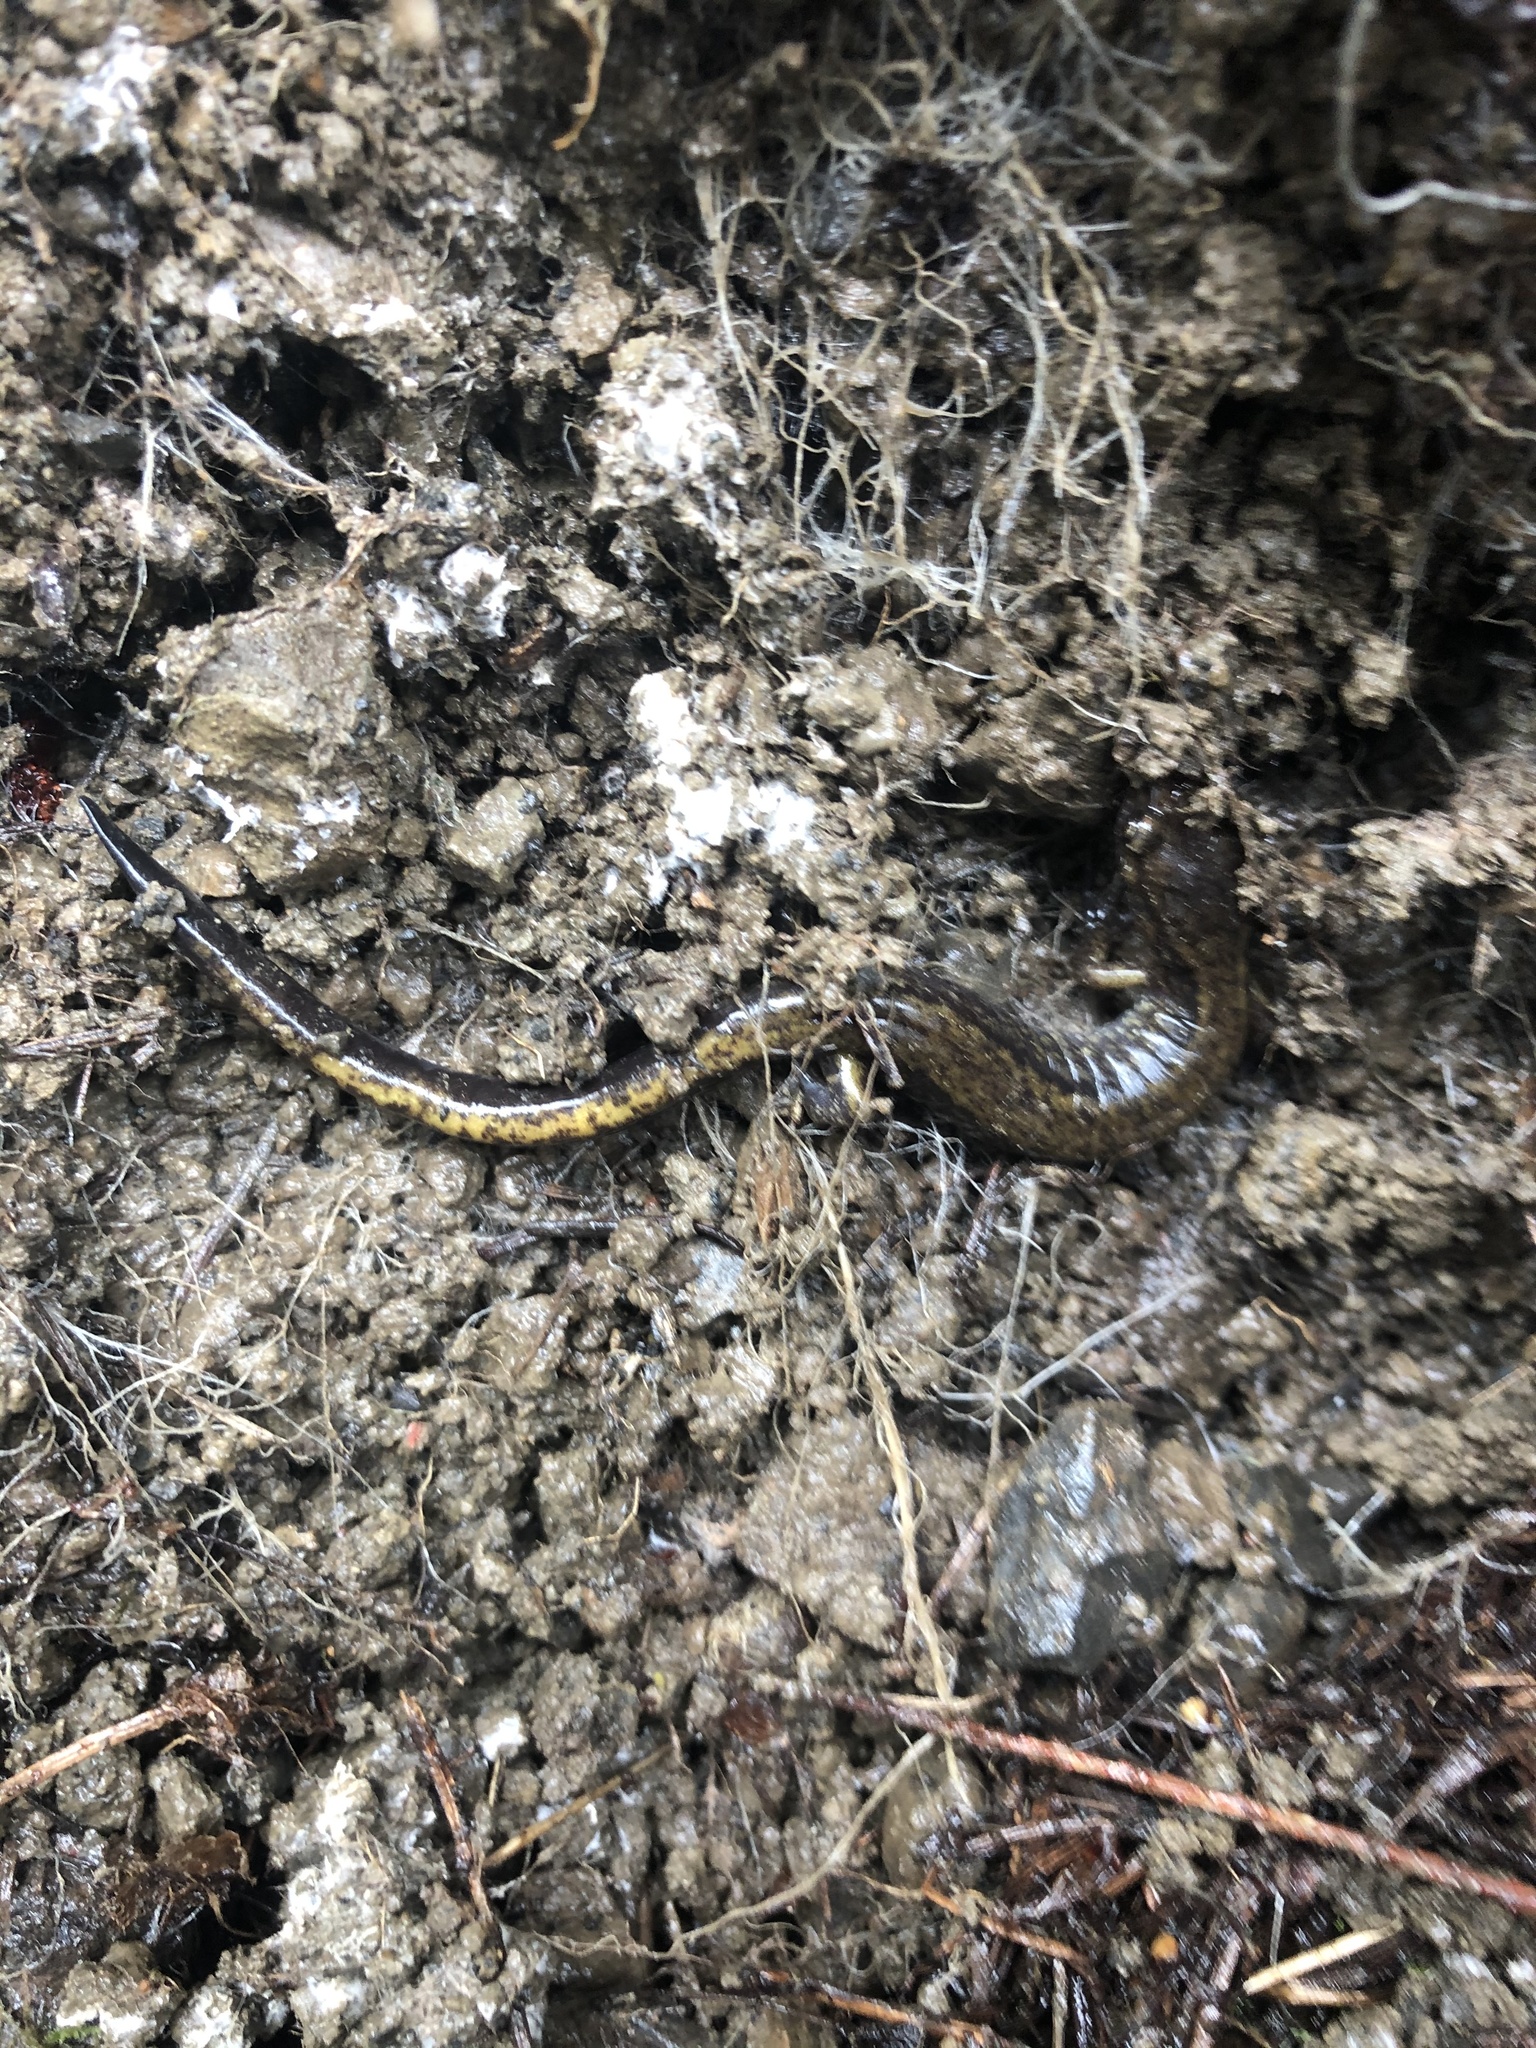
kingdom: Animalia
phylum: Chordata
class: Amphibia
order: Caudata
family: Plethodontidae
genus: Plethodon
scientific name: Plethodon dunni
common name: Dunn's salamander
